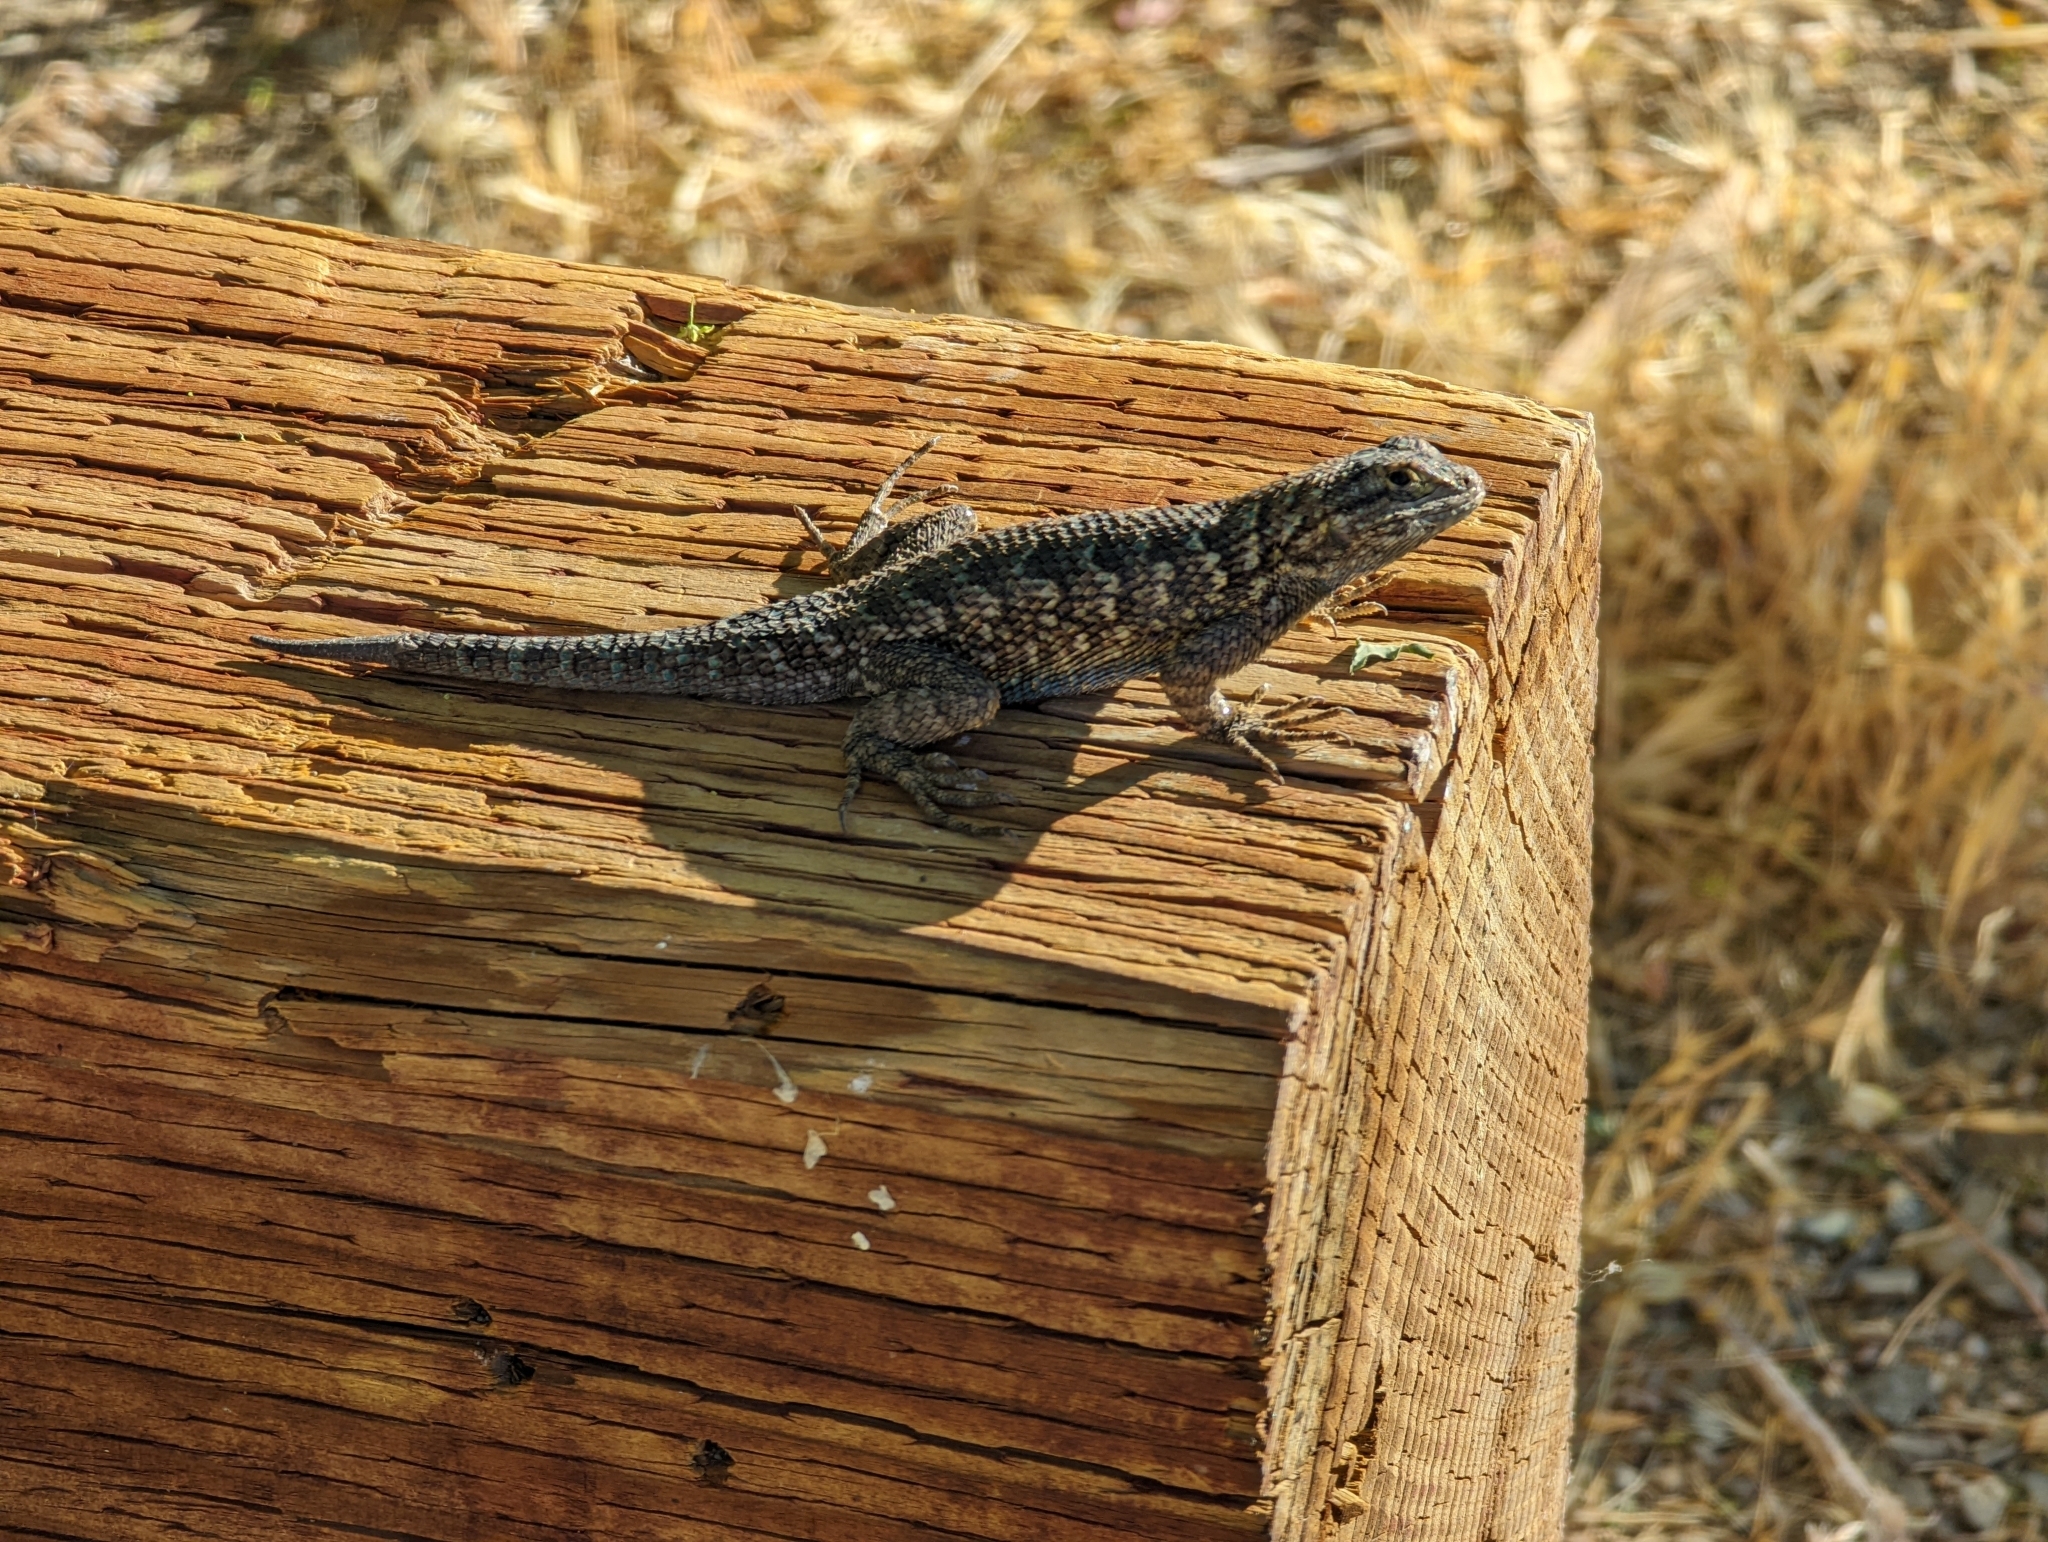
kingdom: Animalia
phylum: Chordata
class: Squamata
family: Phrynosomatidae
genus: Sceloporus
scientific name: Sceloporus occidentalis
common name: Western fence lizard
